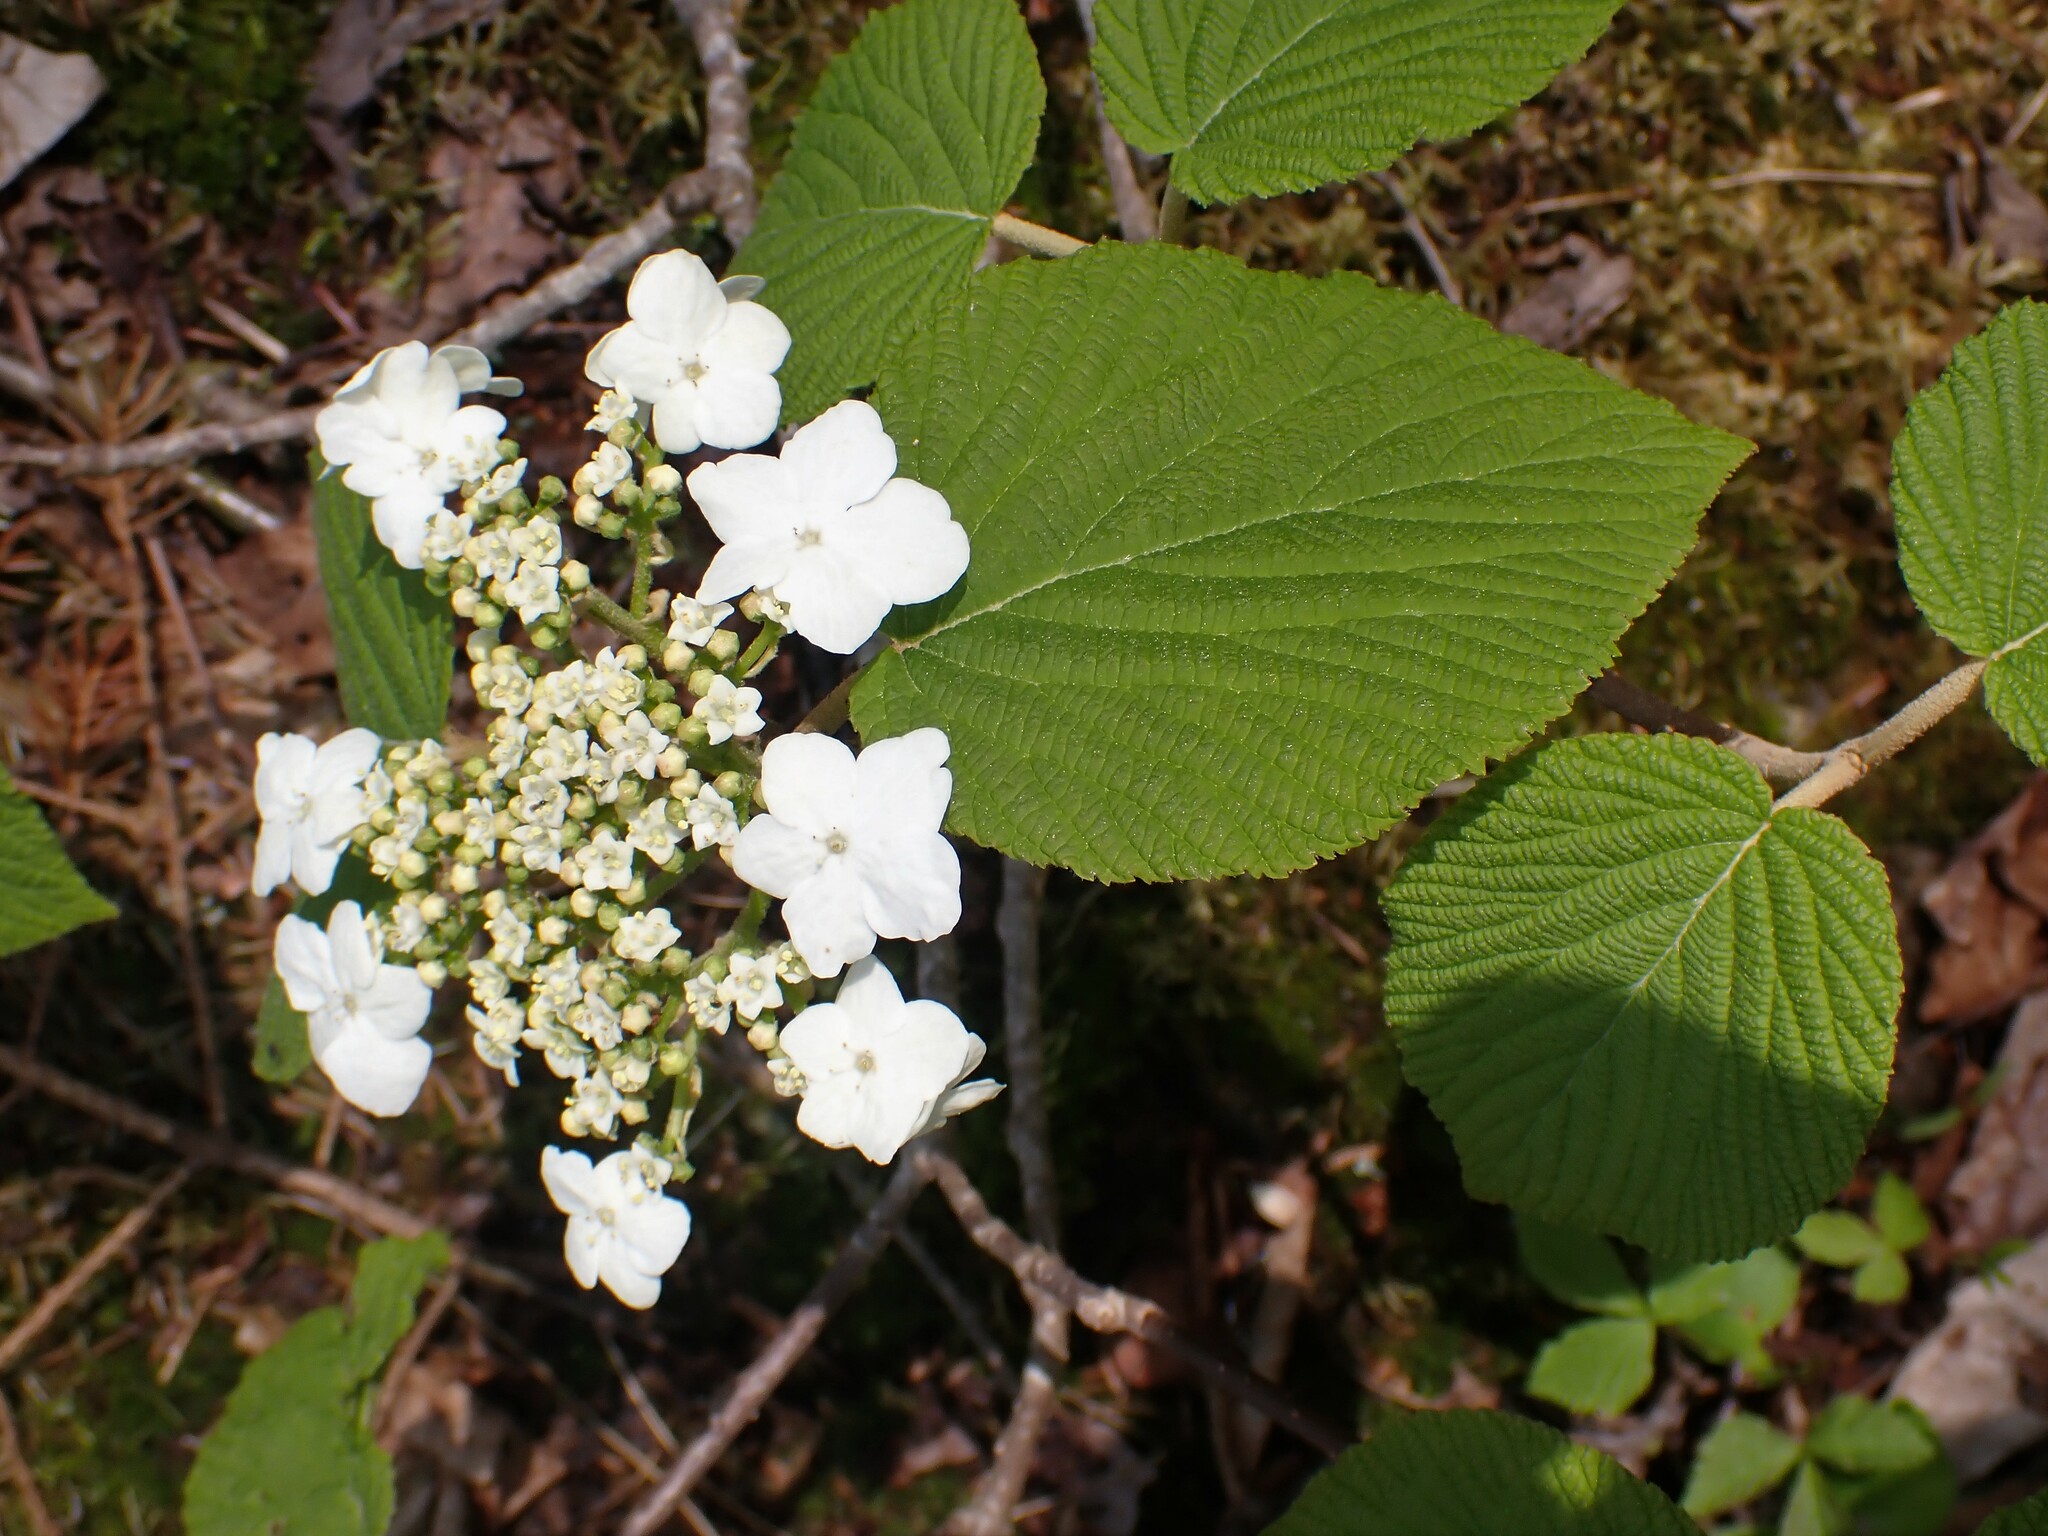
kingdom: Plantae
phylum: Tracheophyta
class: Magnoliopsida
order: Dipsacales
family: Viburnaceae
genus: Viburnum
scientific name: Viburnum lantanoides
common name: Hobblebush
